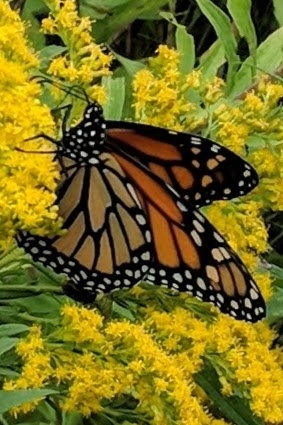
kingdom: Animalia
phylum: Arthropoda
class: Insecta
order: Lepidoptera
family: Nymphalidae
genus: Danaus
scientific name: Danaus plexippus
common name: Monarch
